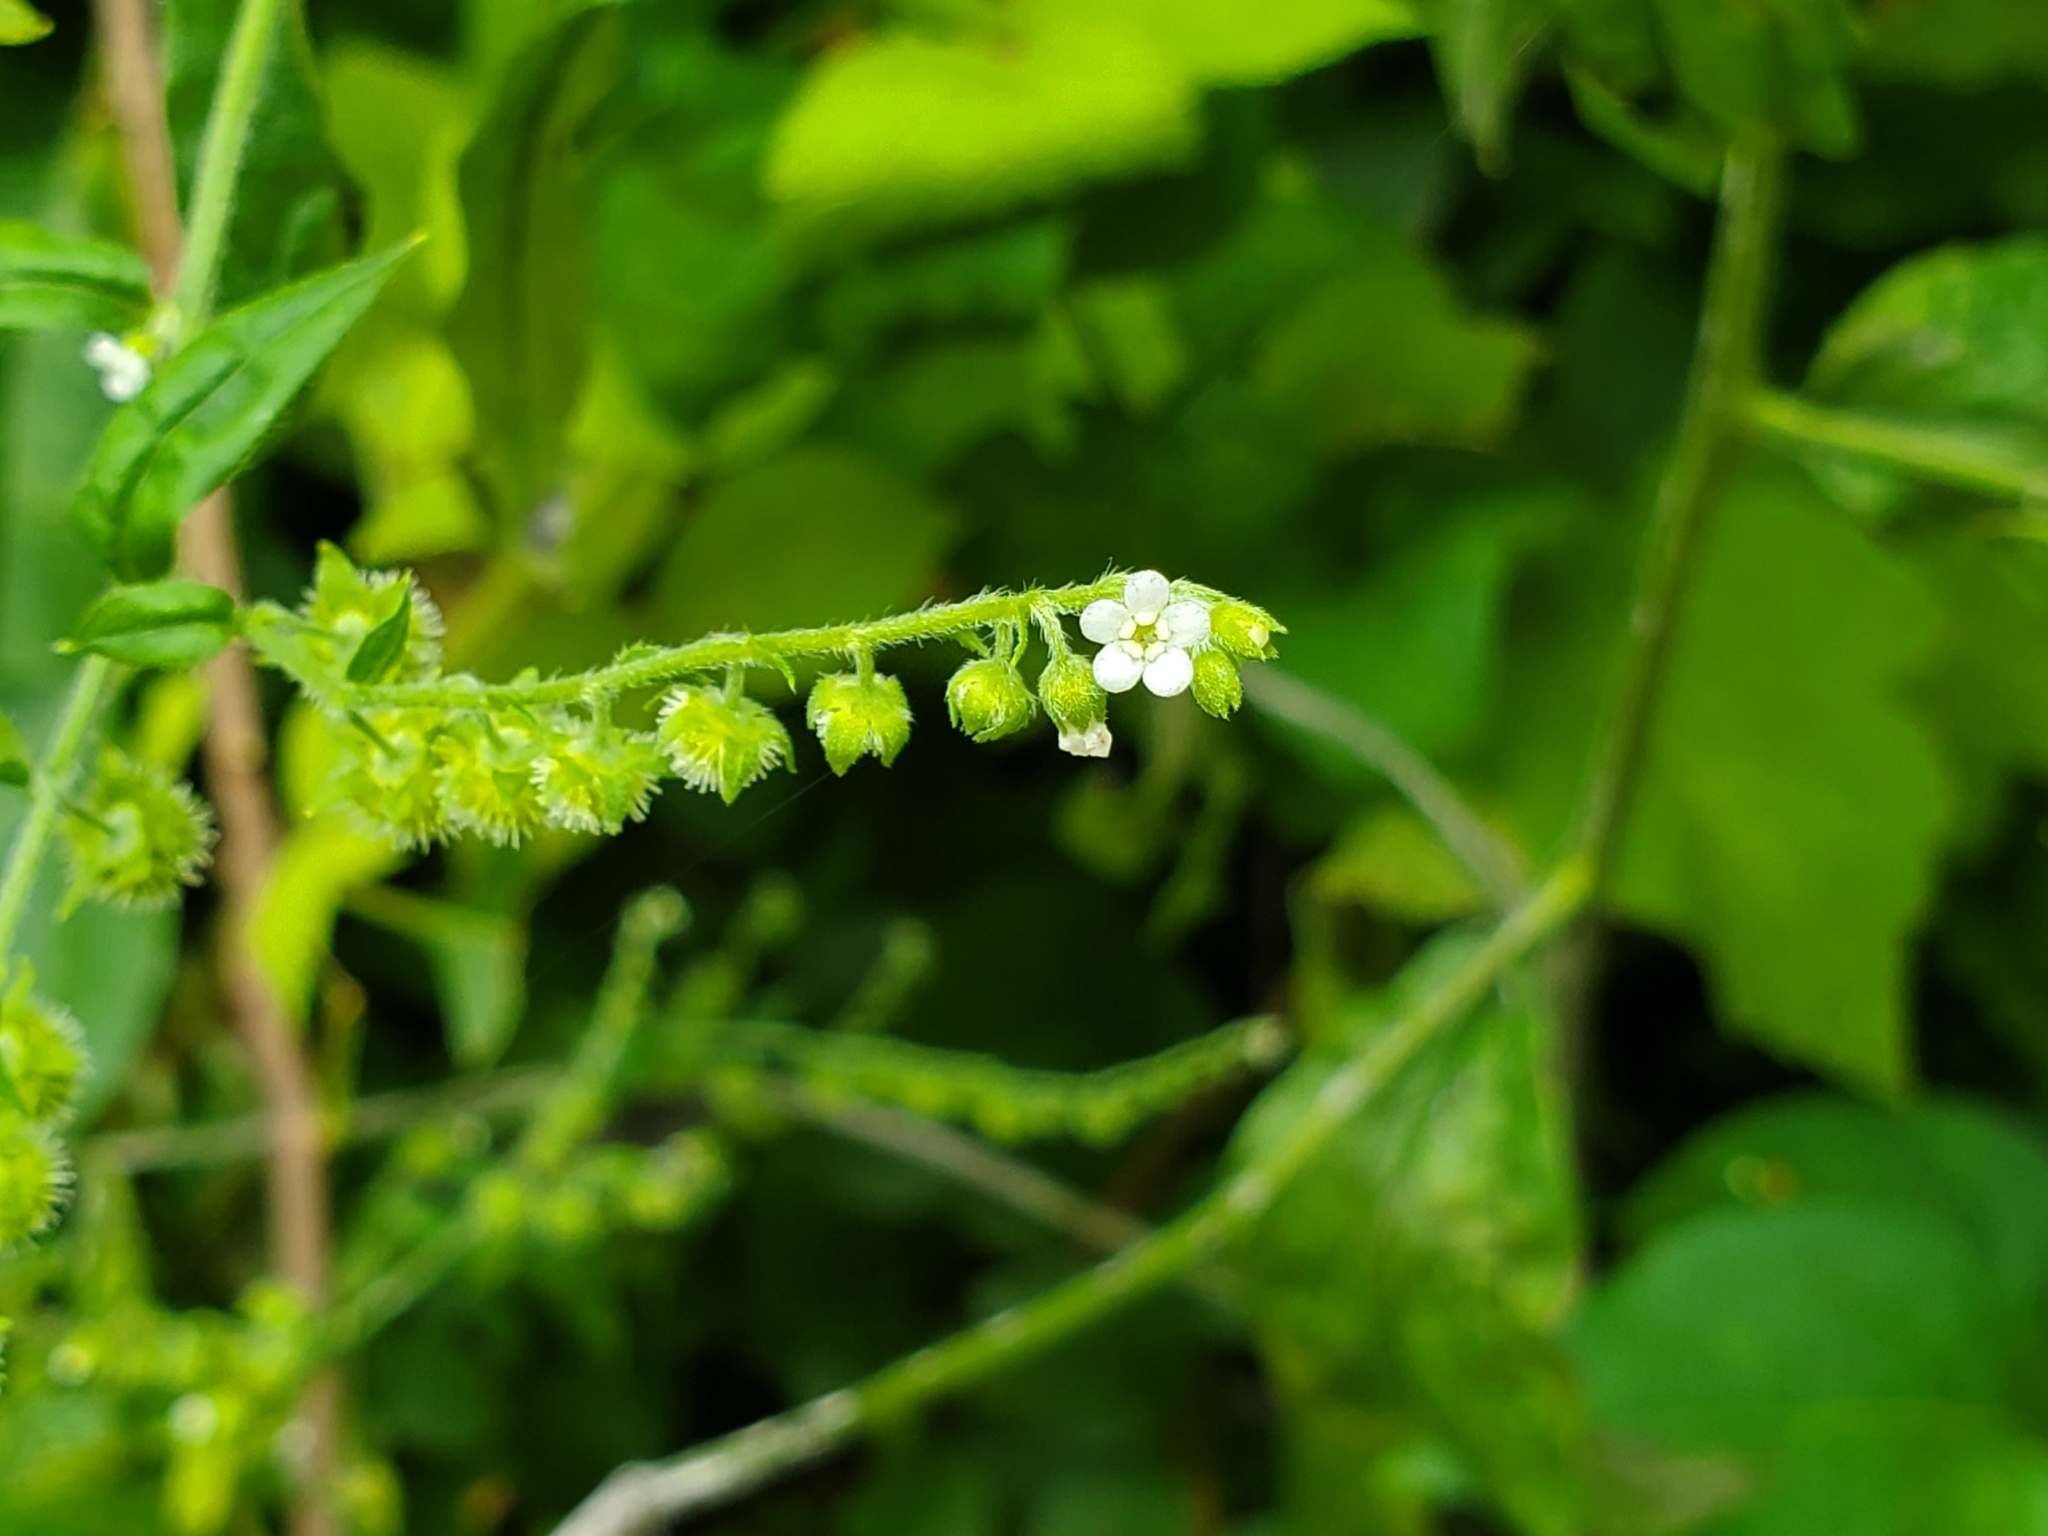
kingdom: Plantae
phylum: Tracheophyta
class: Magnoliopsida
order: Boraginales
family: Boraginaceae
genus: Hackelia
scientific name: Hackelia virginiana
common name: Beggar's-lice
